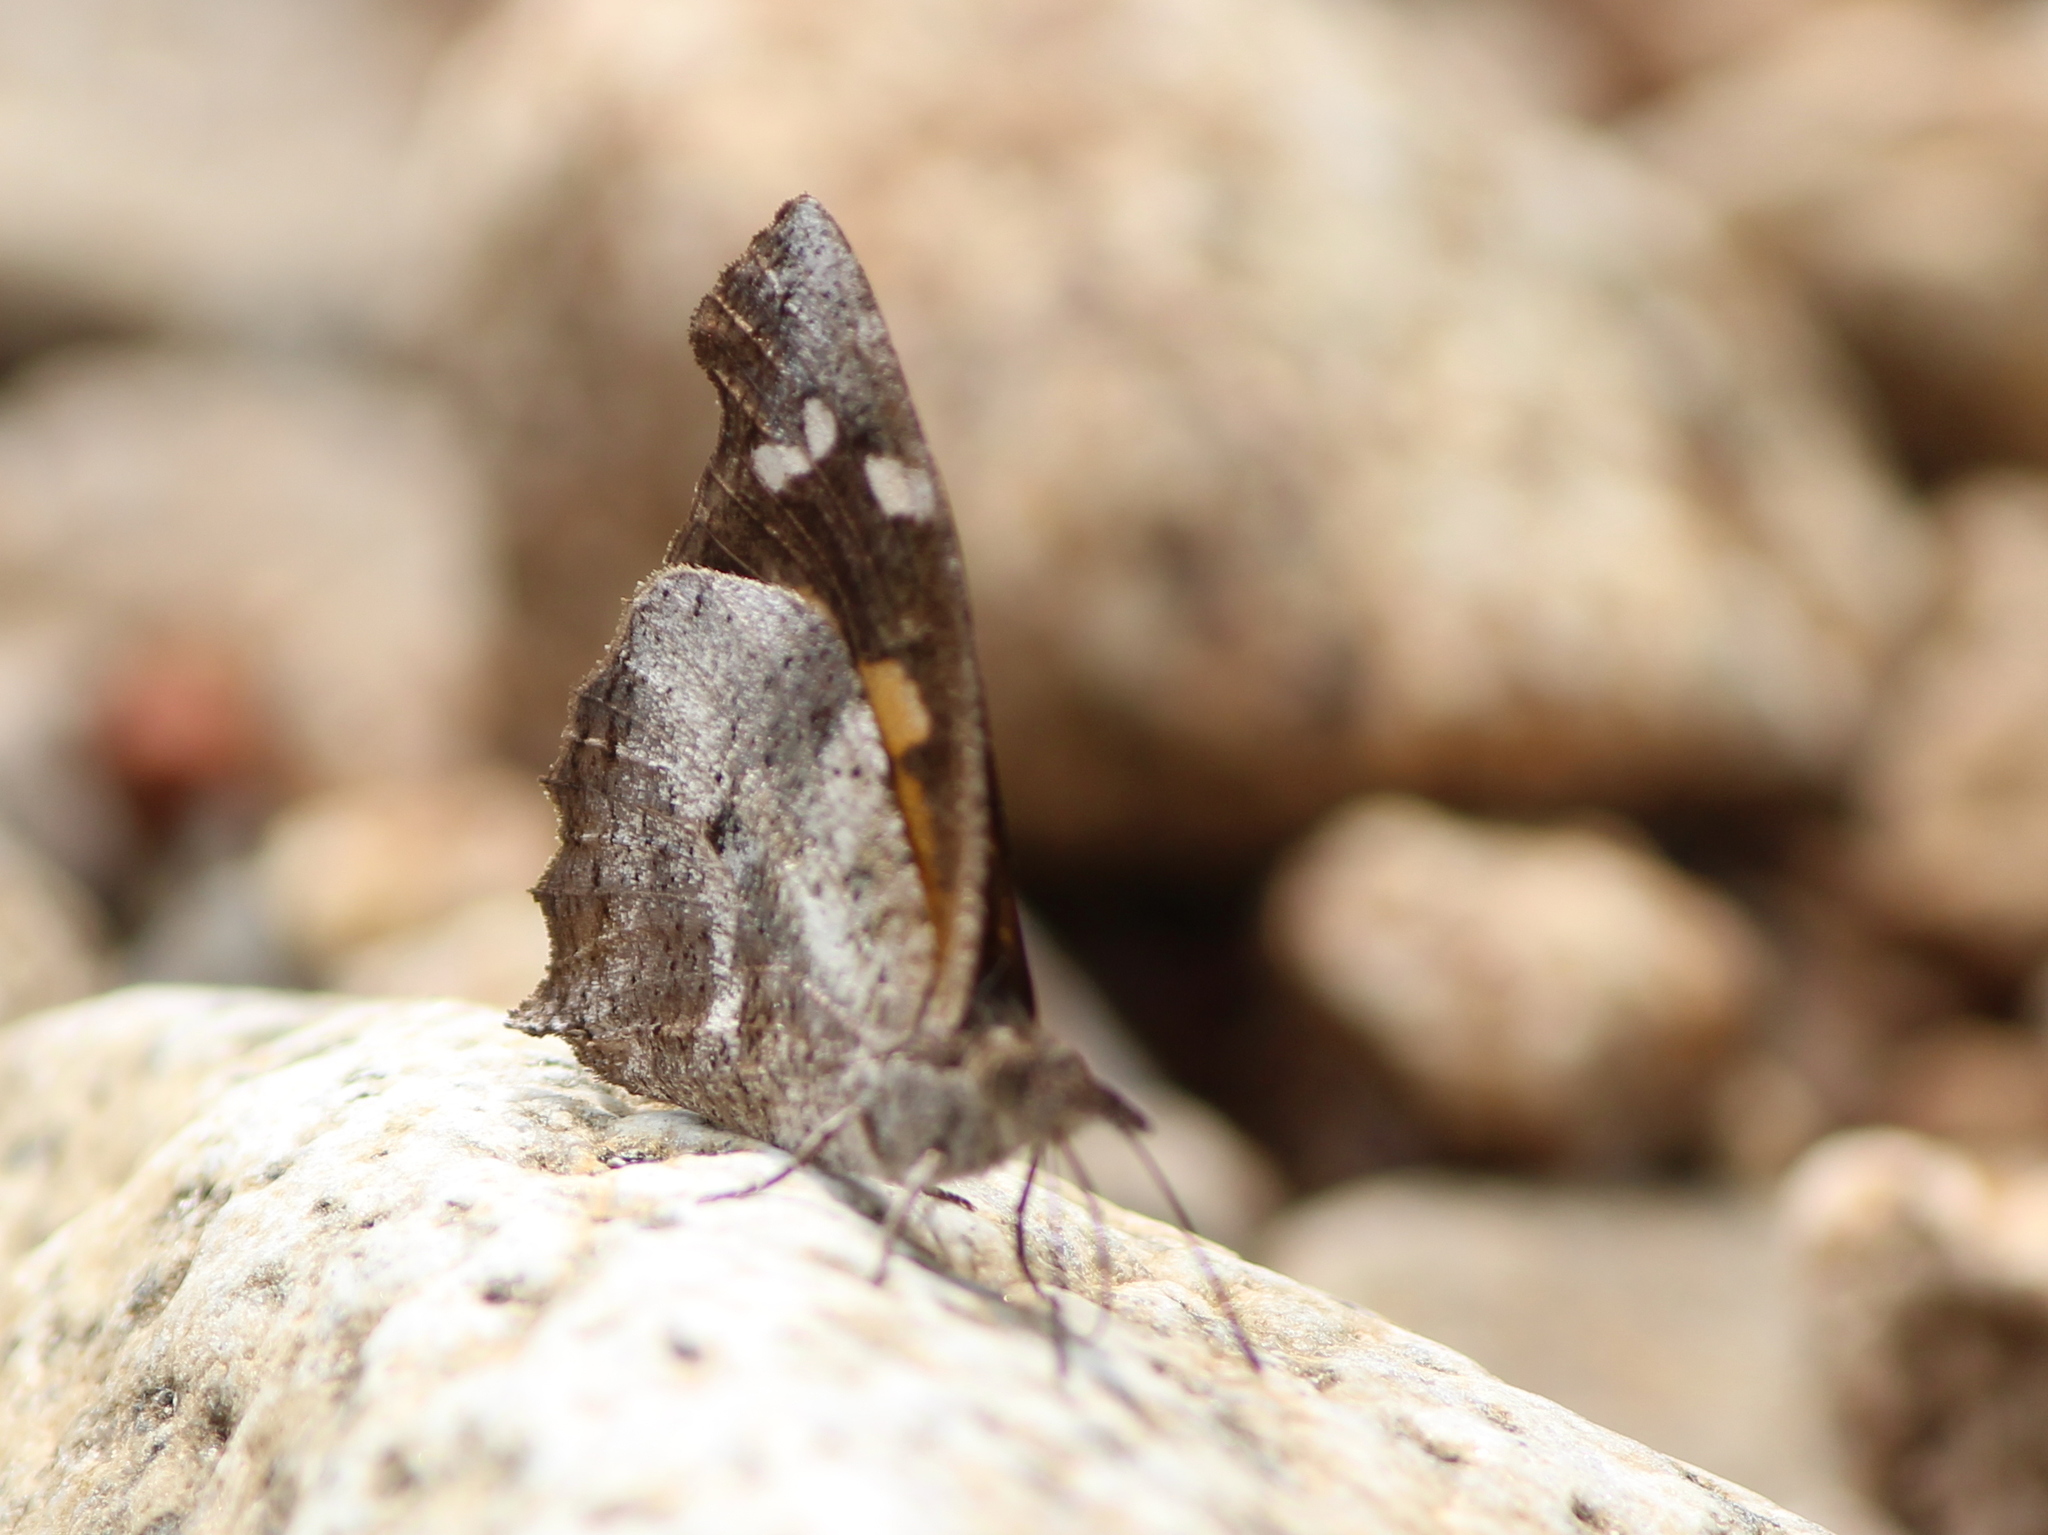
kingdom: Animalia
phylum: Arthropoda
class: Insecta
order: Lepidoptera
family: Nymphalidae
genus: Libythea
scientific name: Libythea laius
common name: African snout
